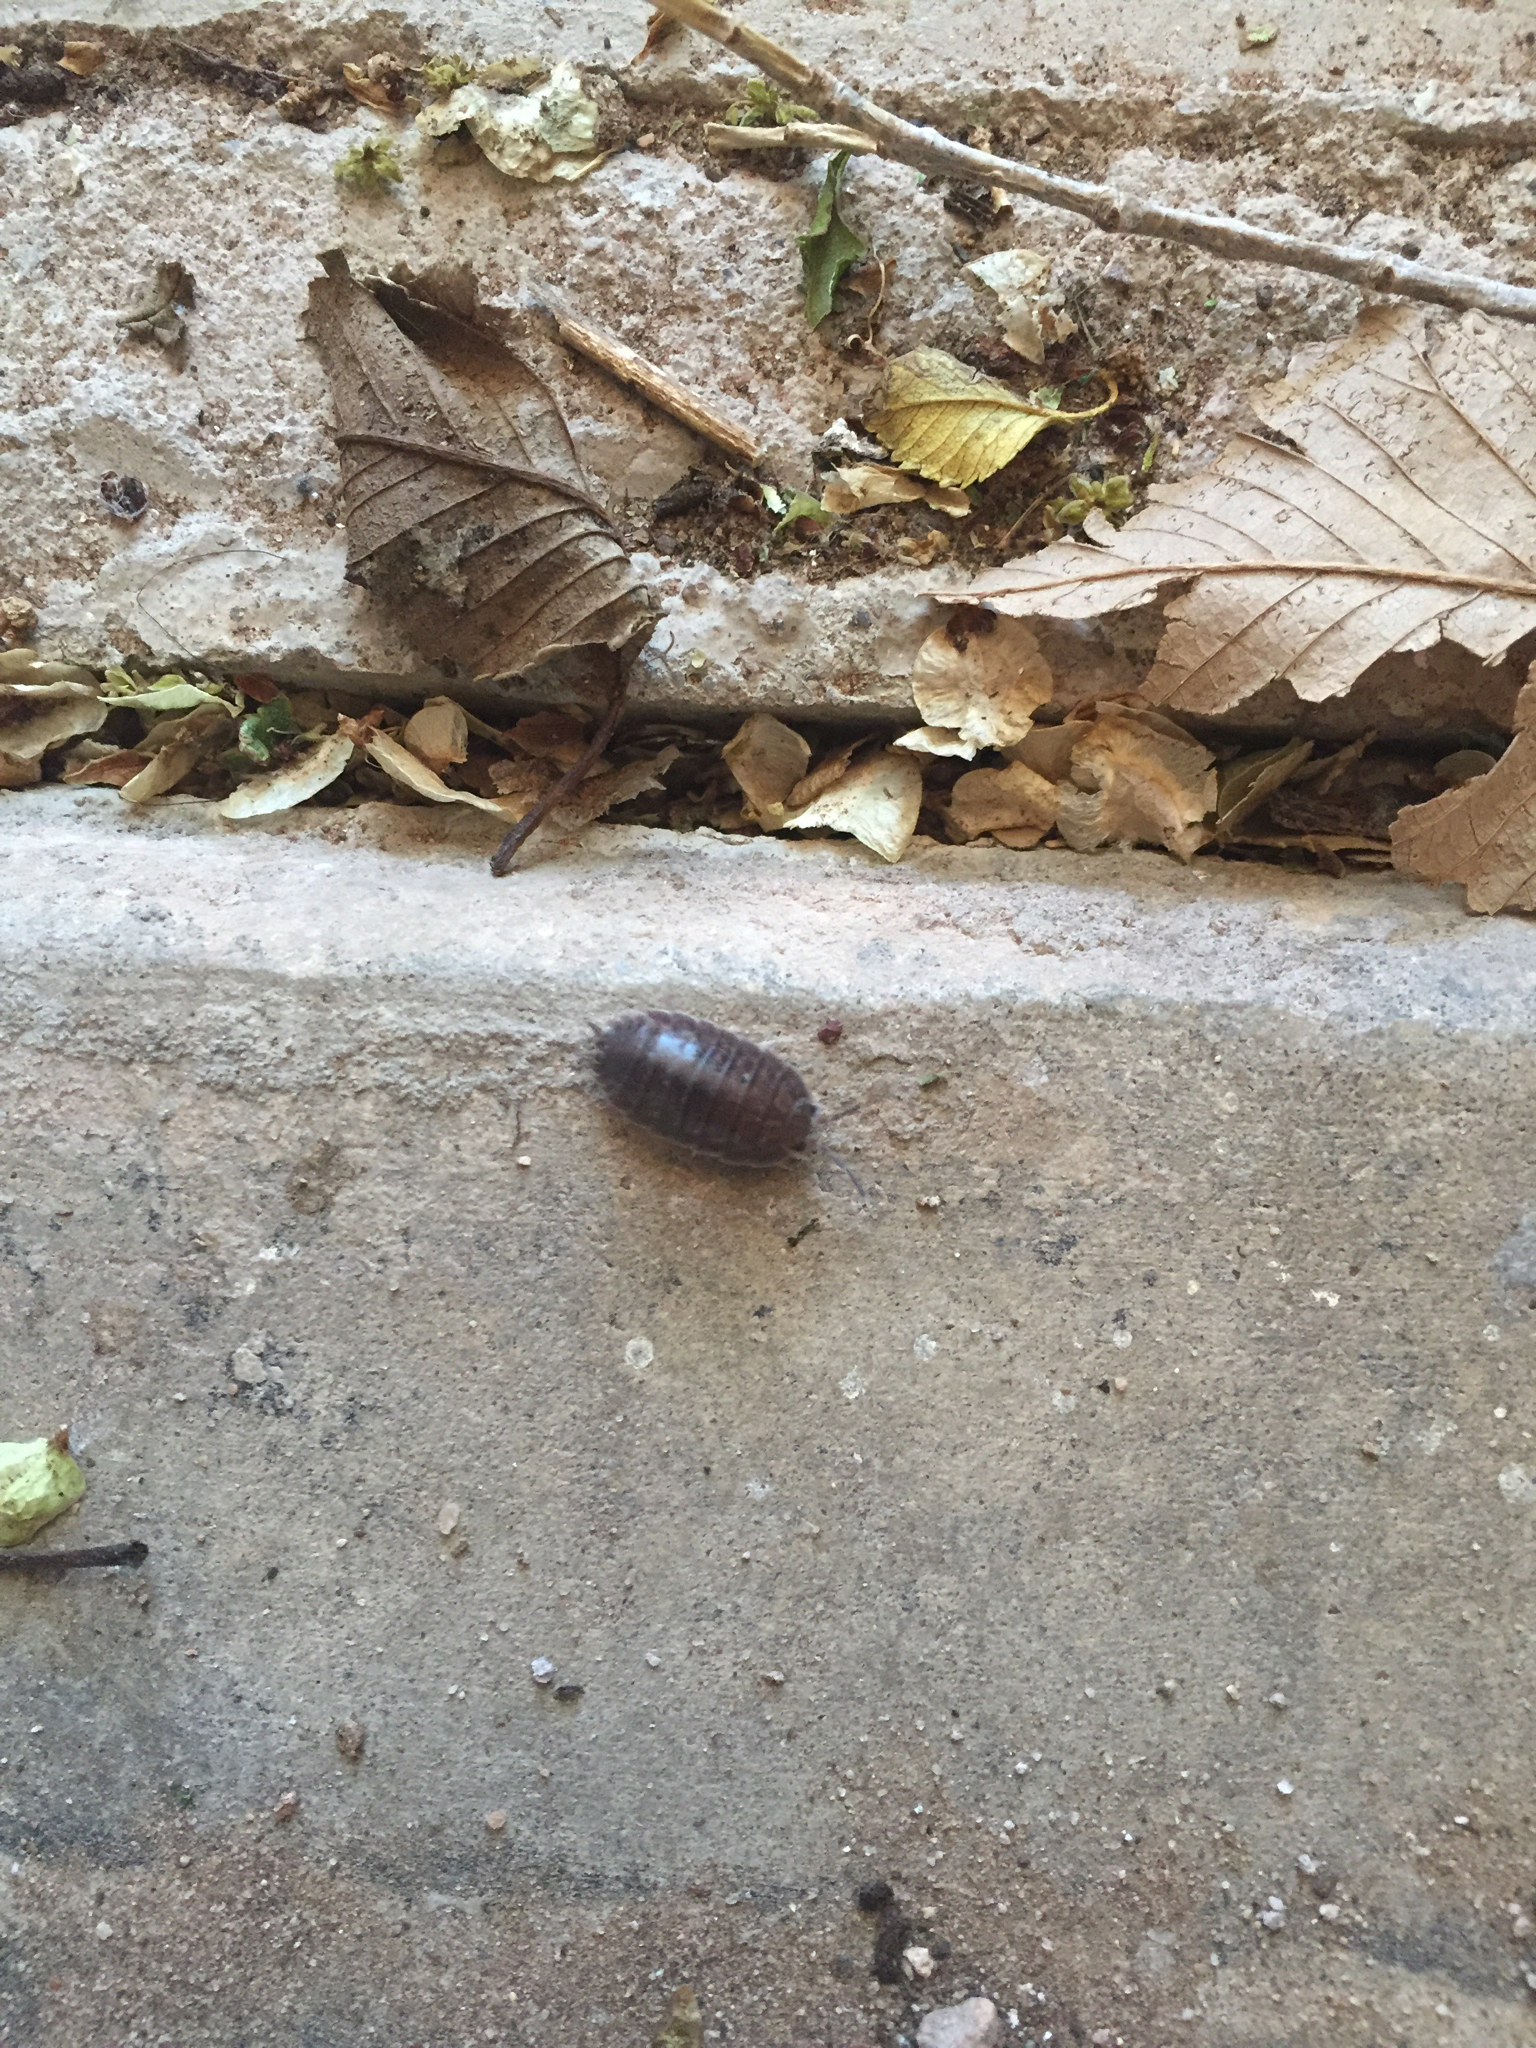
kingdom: Animalia
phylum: Arthropoda
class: Malacostraca
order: Isopoda
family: Porcellionidae
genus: Porcellio
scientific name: Porcellio laevis
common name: Swift woodlouse
